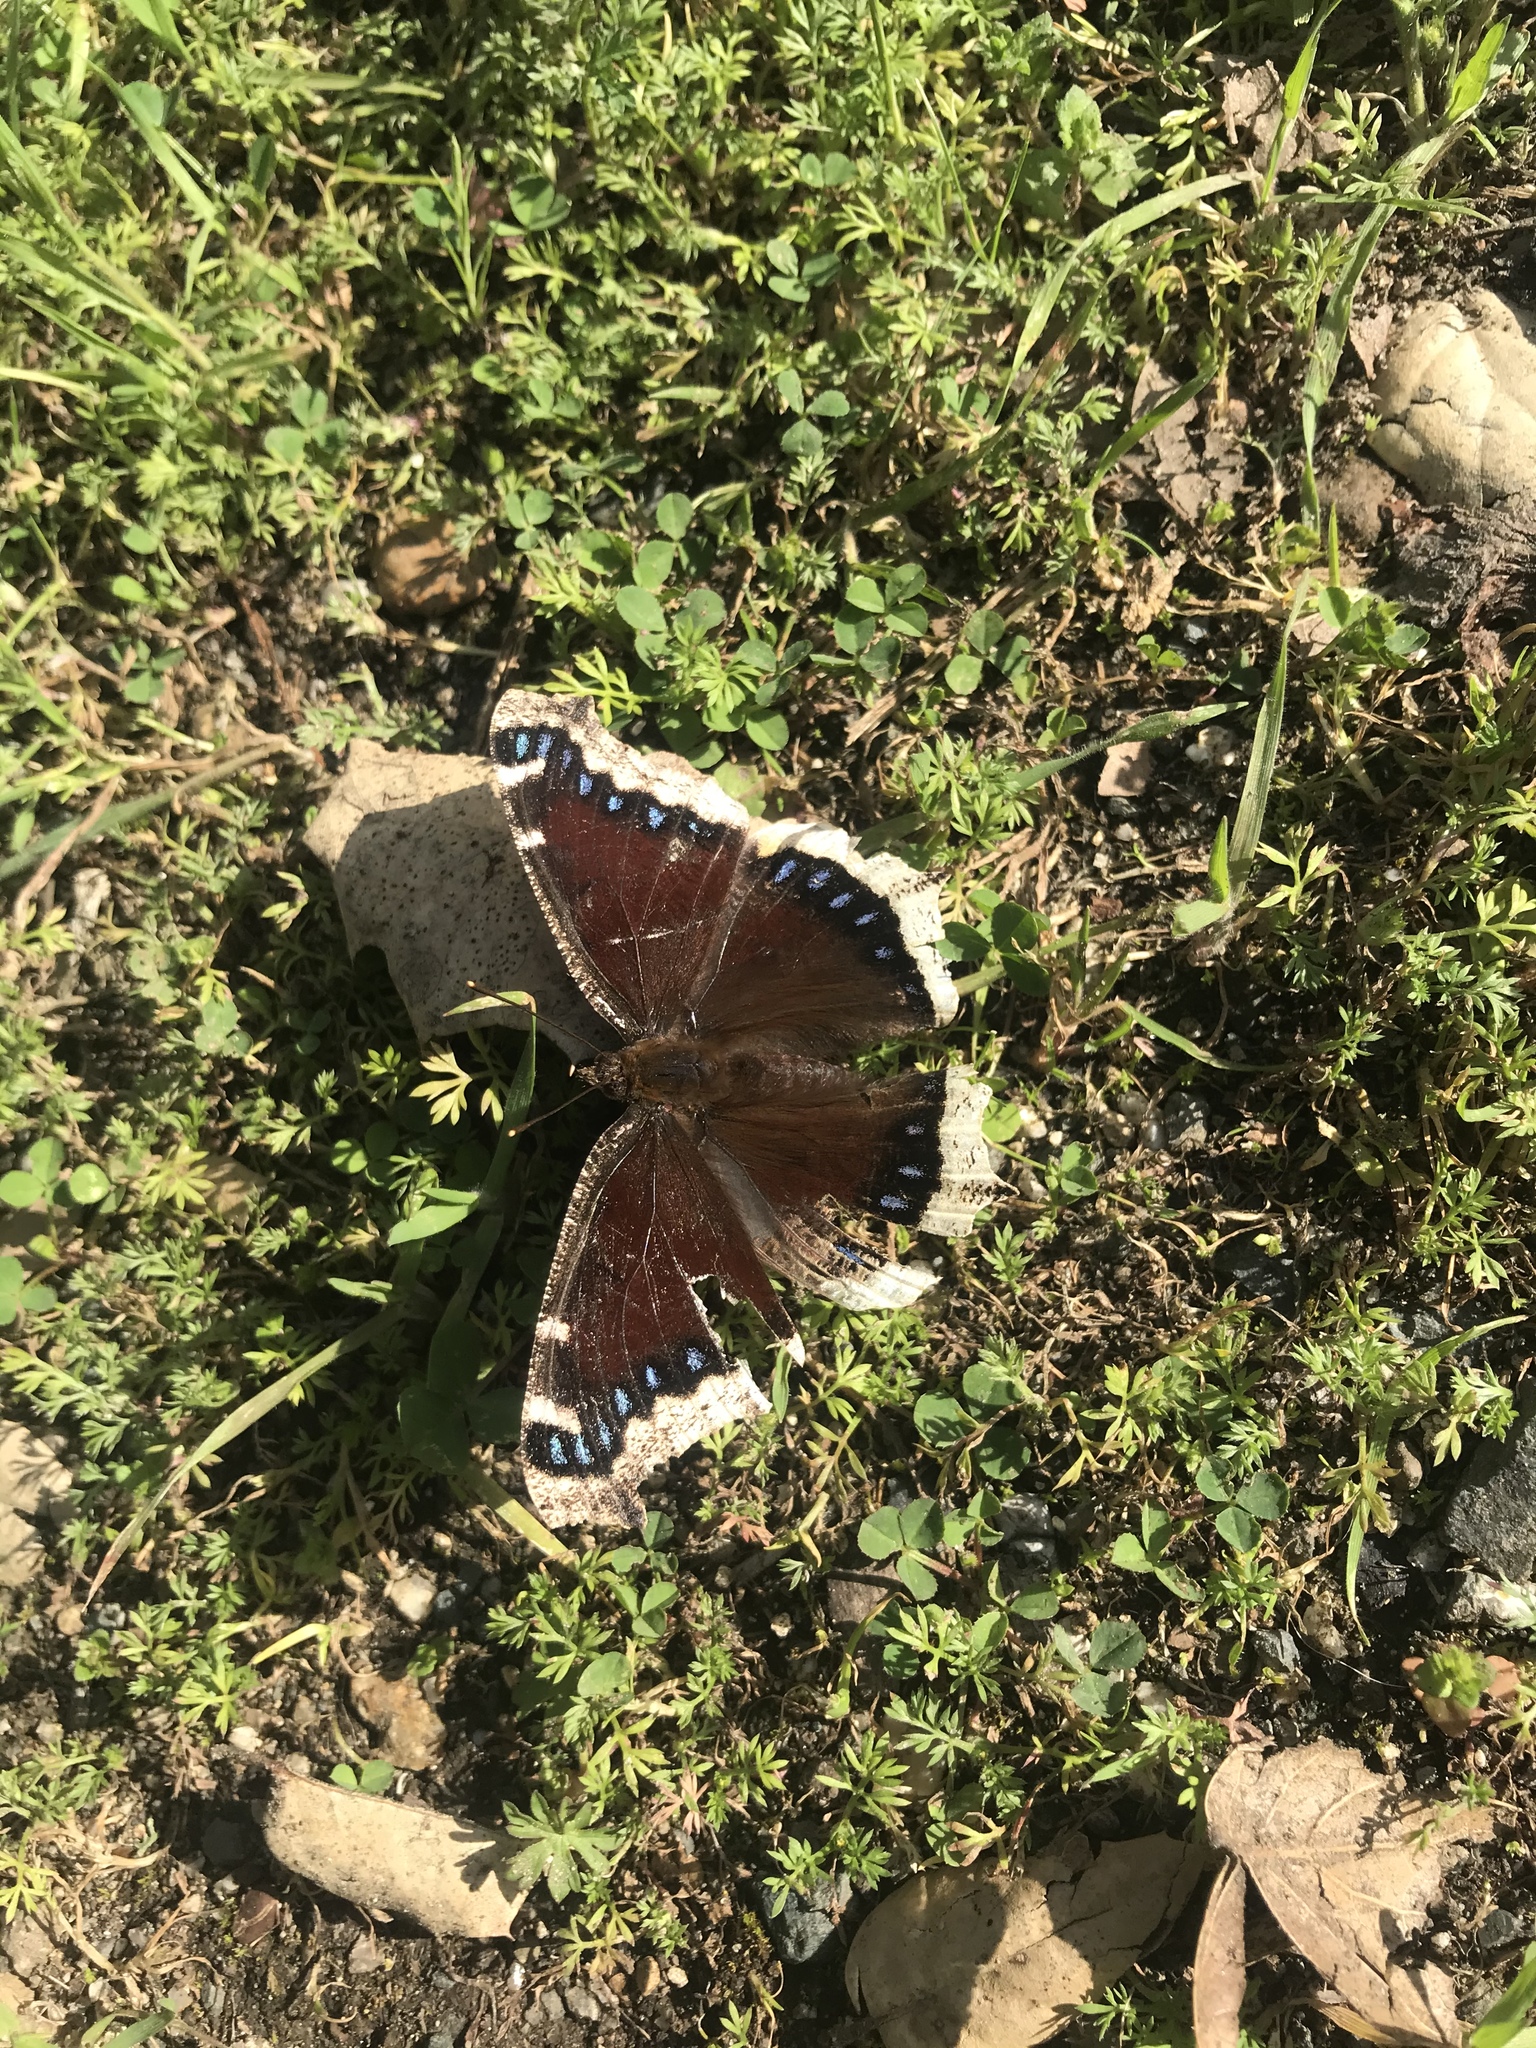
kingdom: Animalia
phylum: Arthropoda
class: Insecta
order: Lepidoptera
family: Nymphalidae
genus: Nymphalis
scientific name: Nymphalis antiopa
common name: Camberwell beauty
